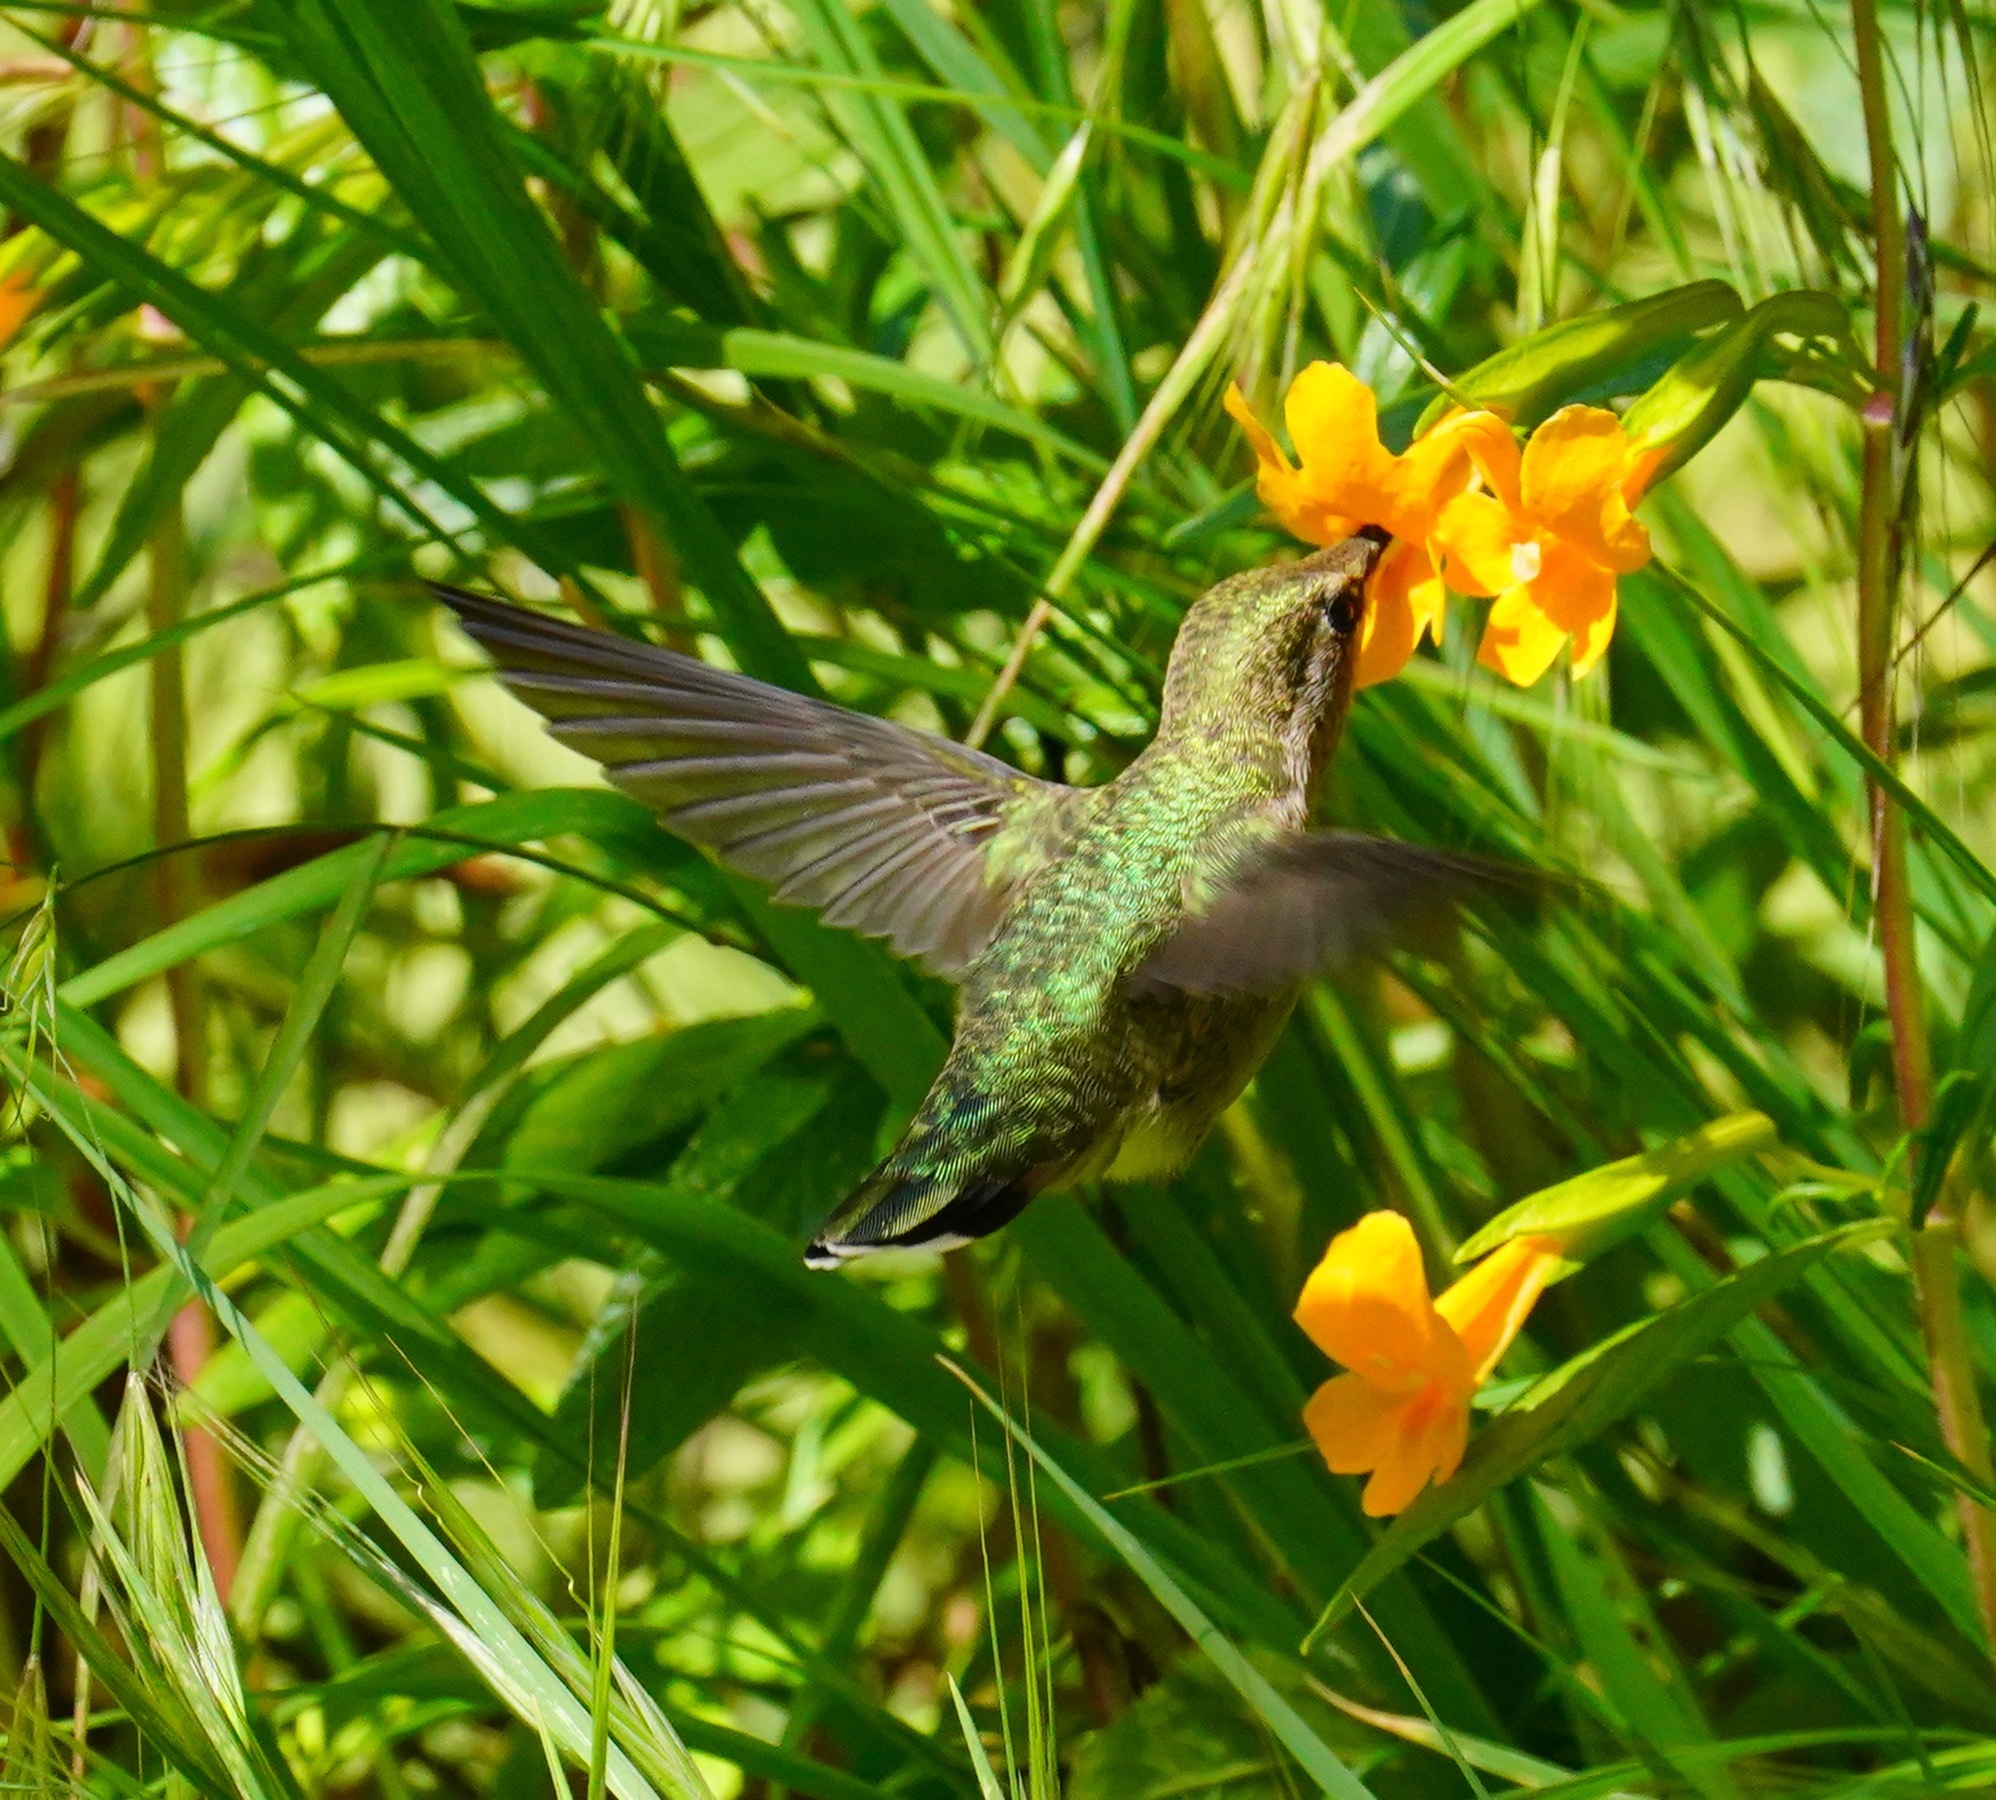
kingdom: Animalia
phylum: Chordata
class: Aves
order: Apodiformes
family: Trochilidae
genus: Calypte
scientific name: Calypte anna
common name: Anna's hummingbird
